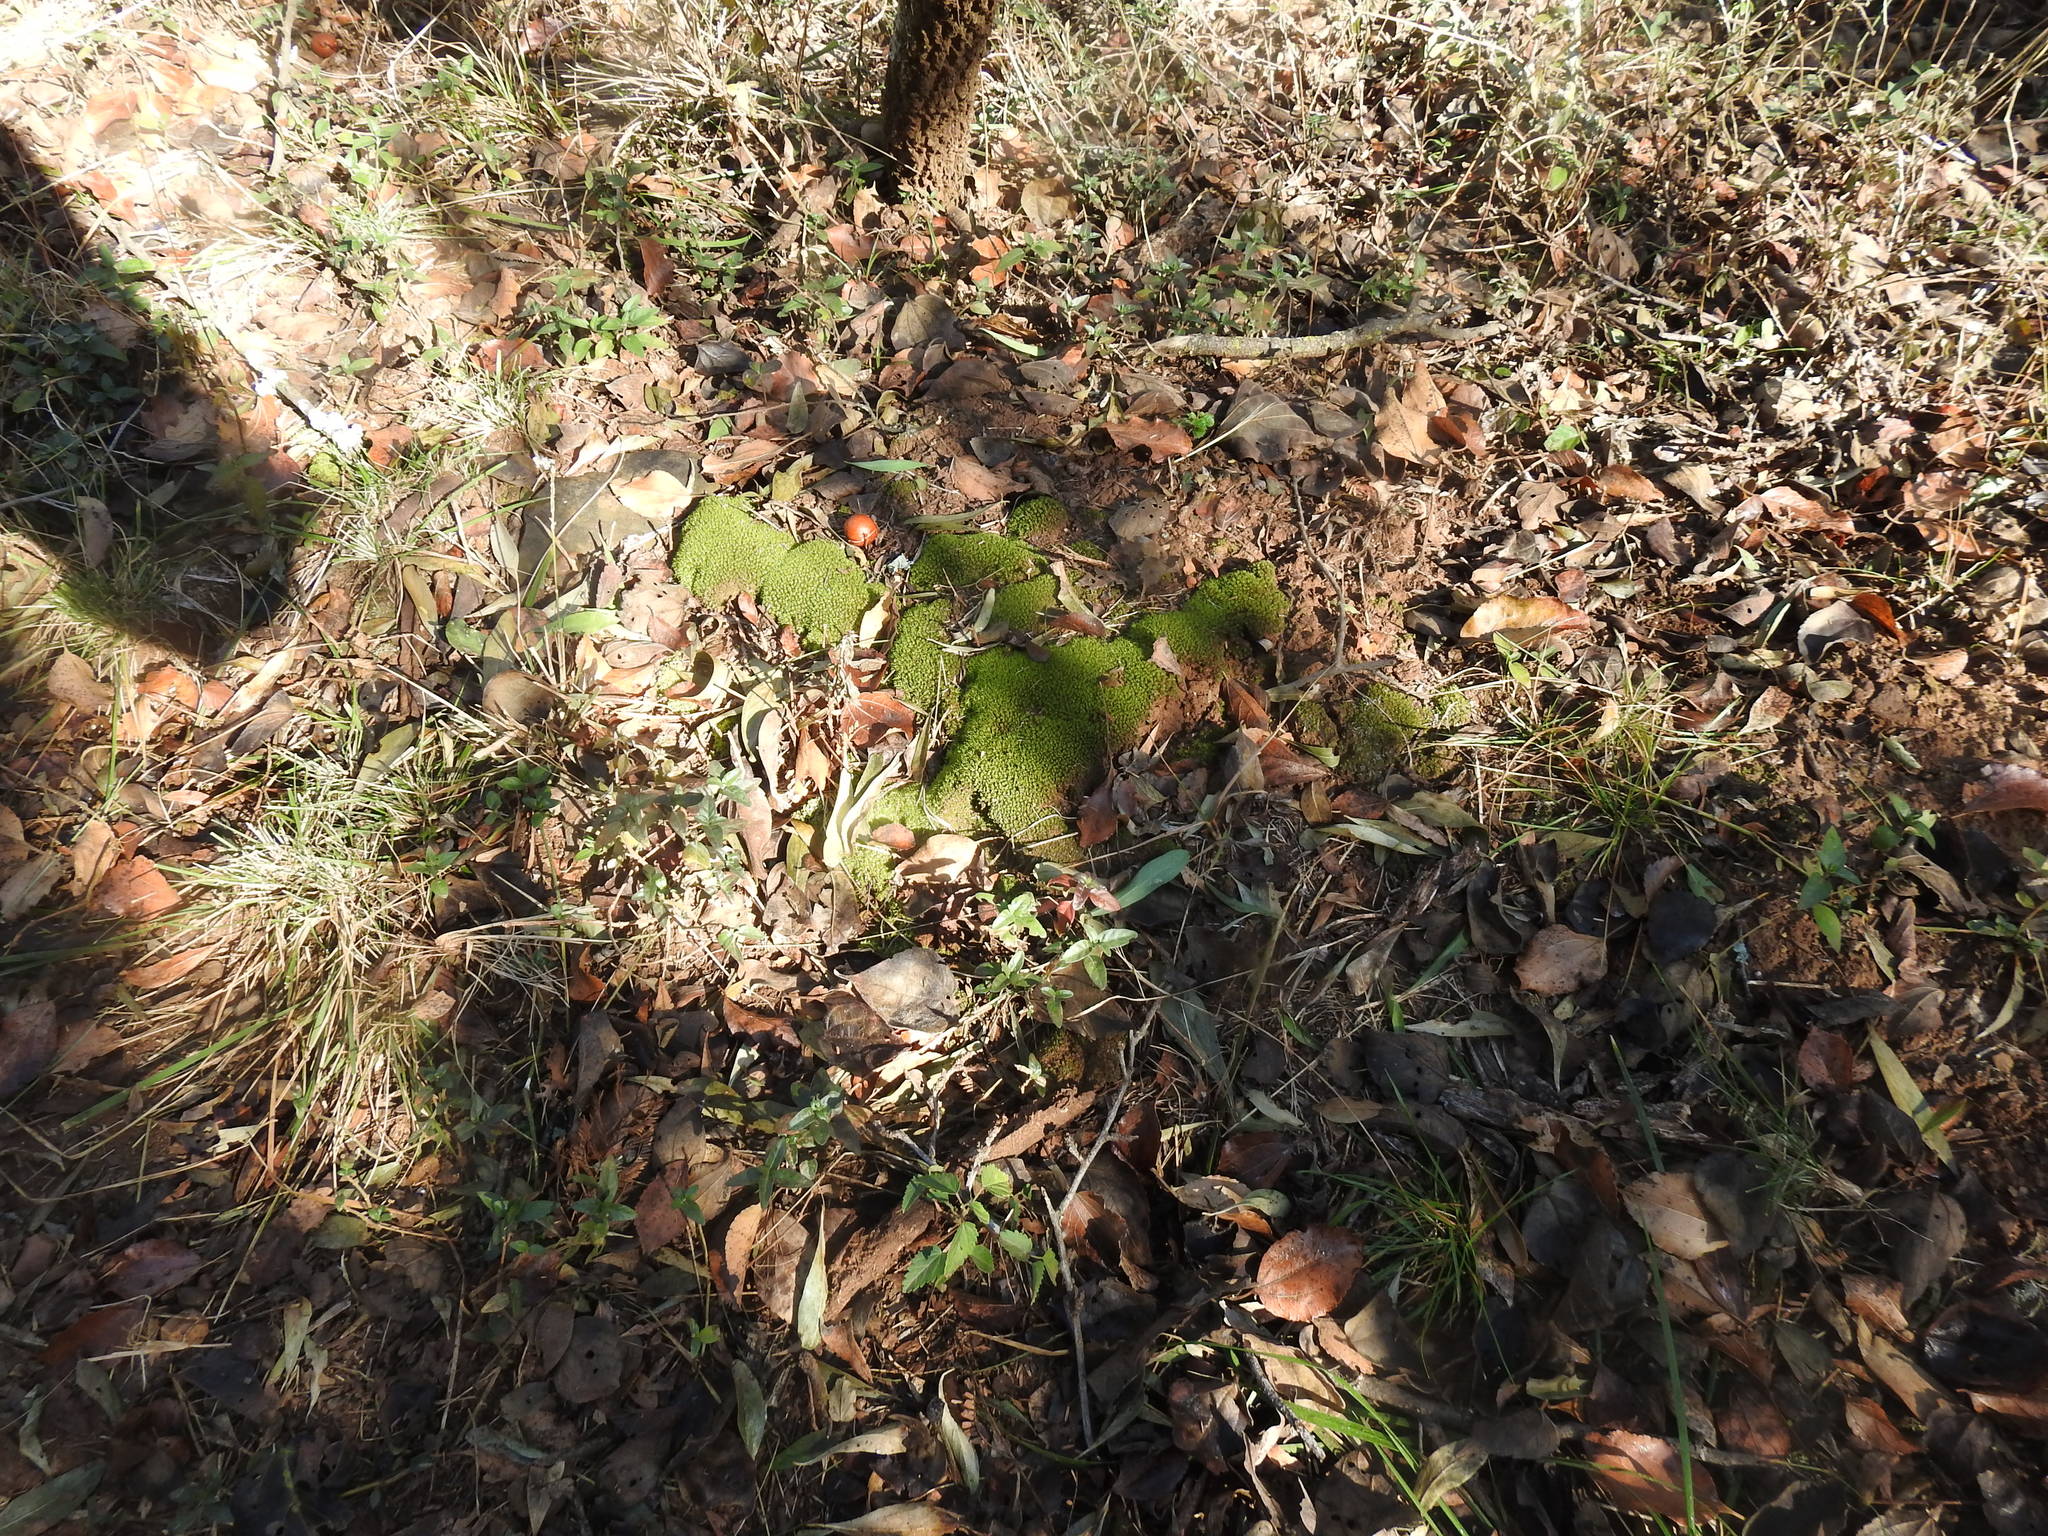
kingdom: Plantae
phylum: Bryophyta
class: Bryopsida
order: Pottiales
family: Pottiaceae
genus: Trichostomum
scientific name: Trichostomum brachydontium
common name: Variable crisp-moss
